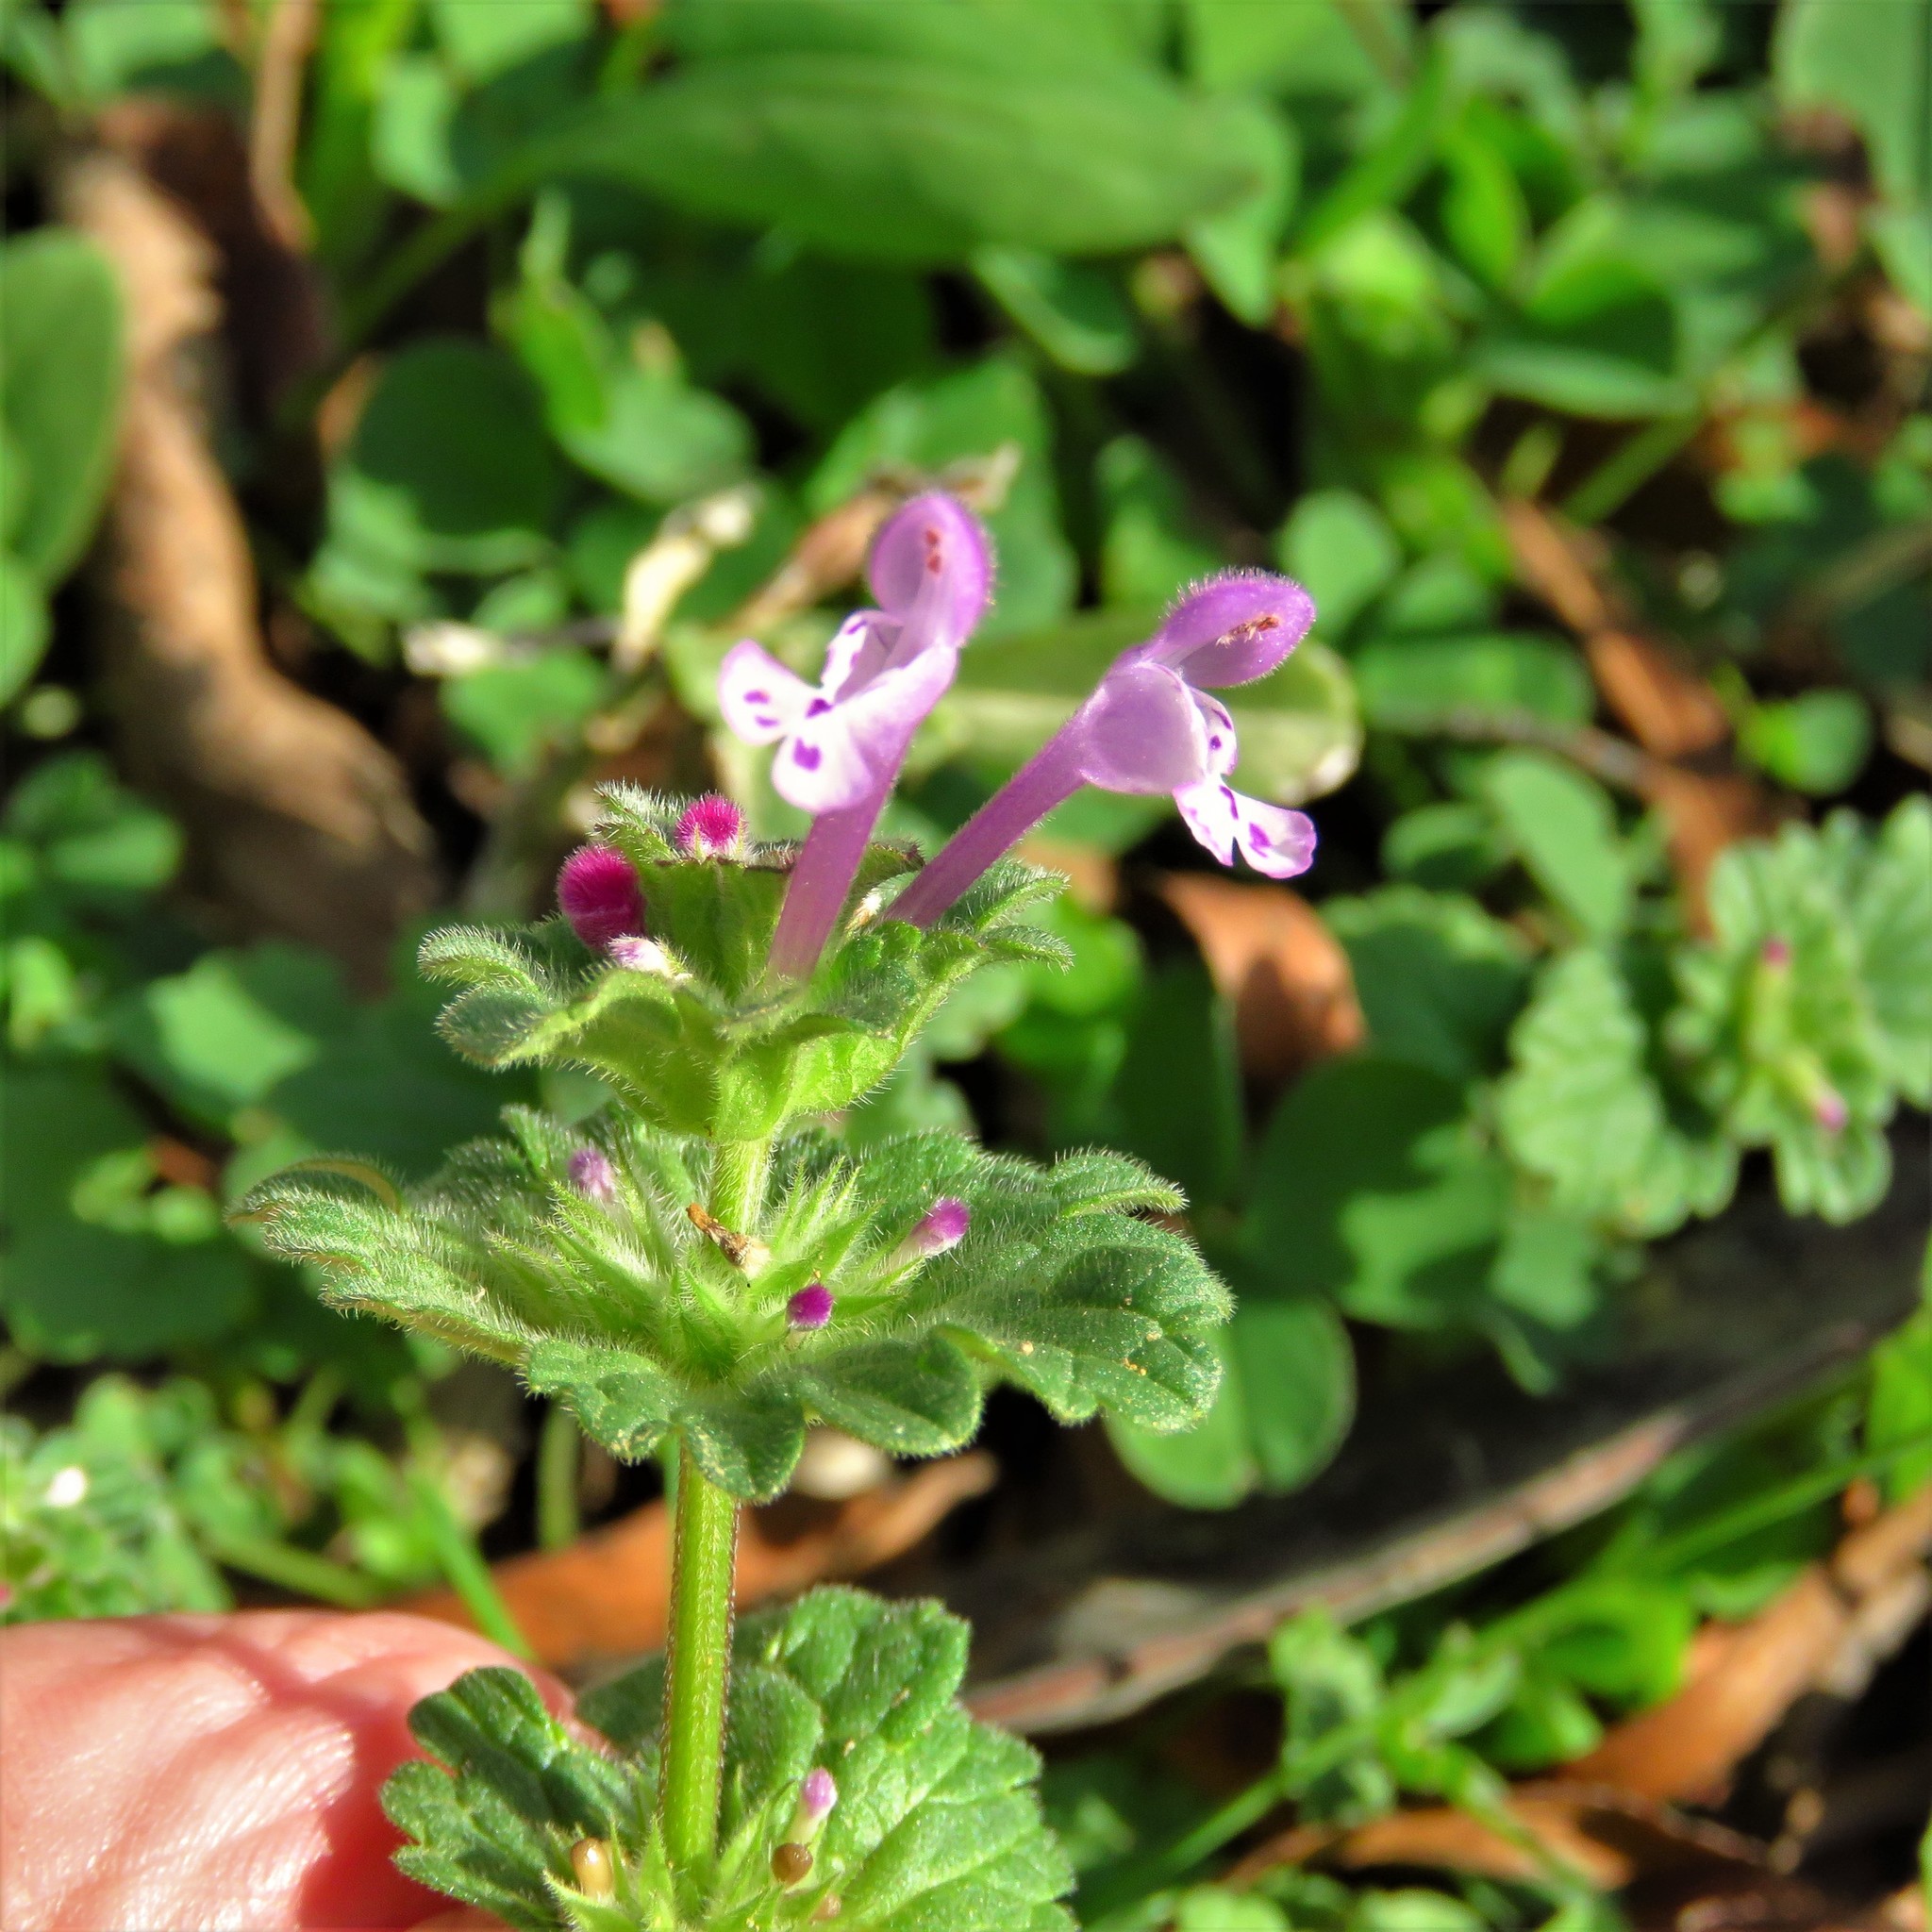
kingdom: Plantae
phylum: Tracheophyta
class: Magnoliopsida
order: Lamiales
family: Lamiaceae
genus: Lamium
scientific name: Lamium amplexicaule
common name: Henbit dead-nettle
